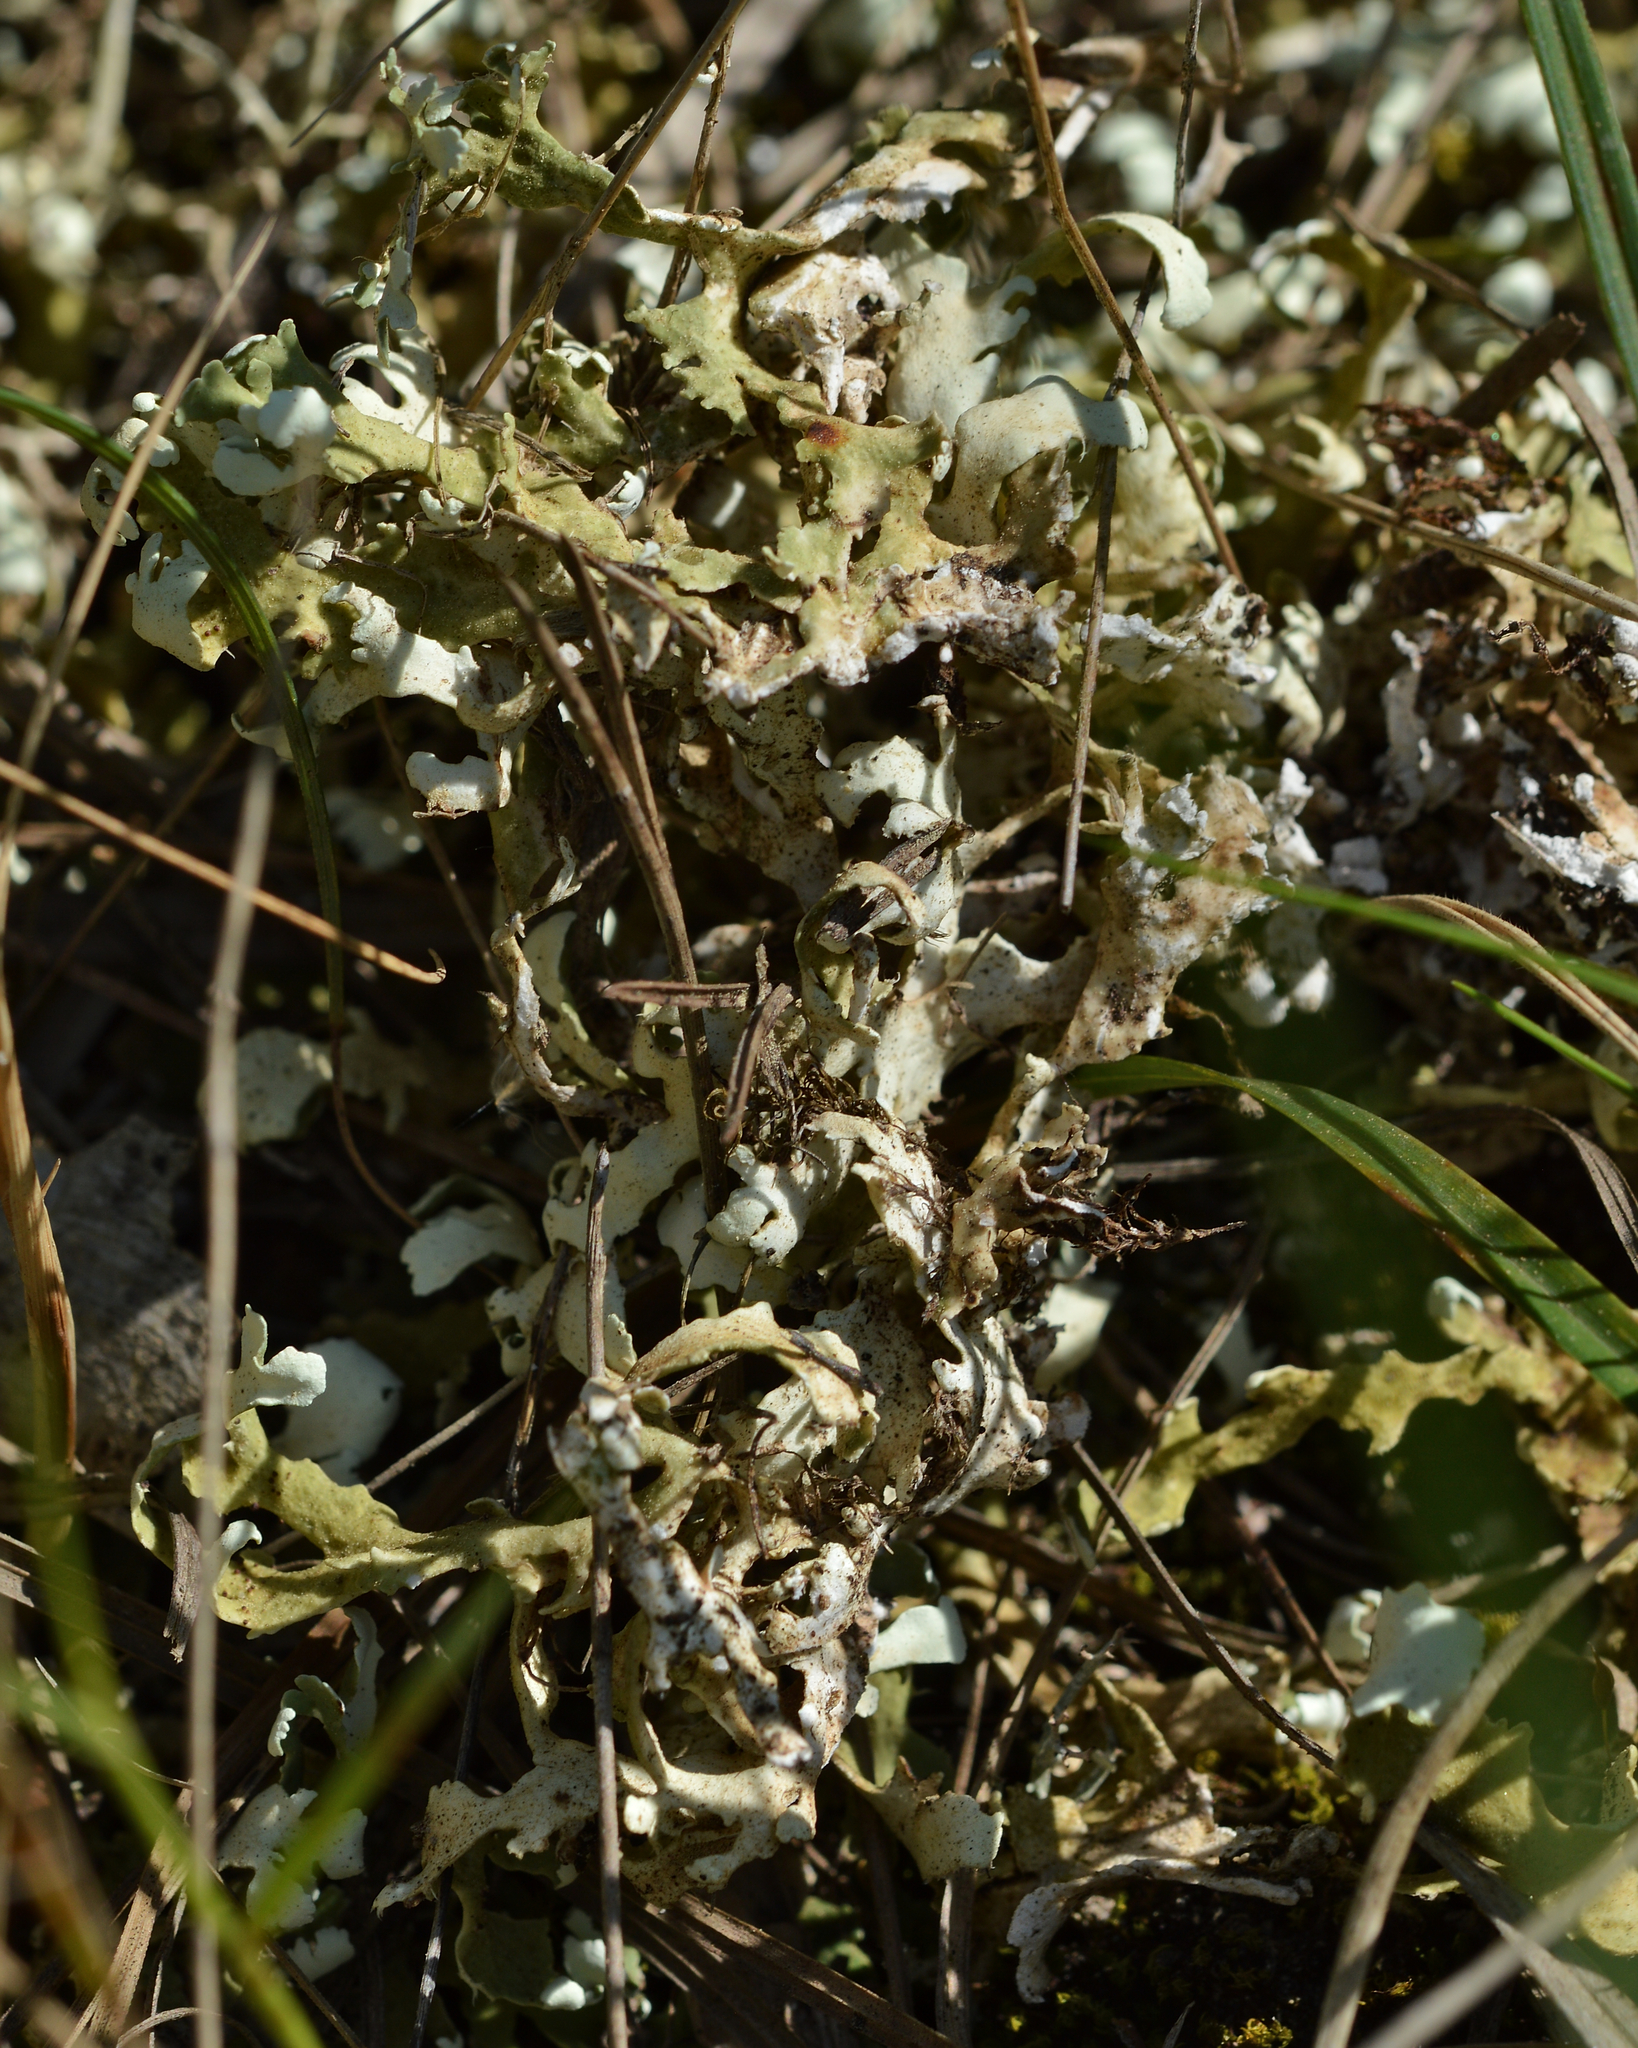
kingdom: Fungi
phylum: Ascomycota
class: Lecanoromycetes
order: Lecanorales
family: Cladoniaceae
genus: Cladonia
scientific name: Cladonia foliacea
